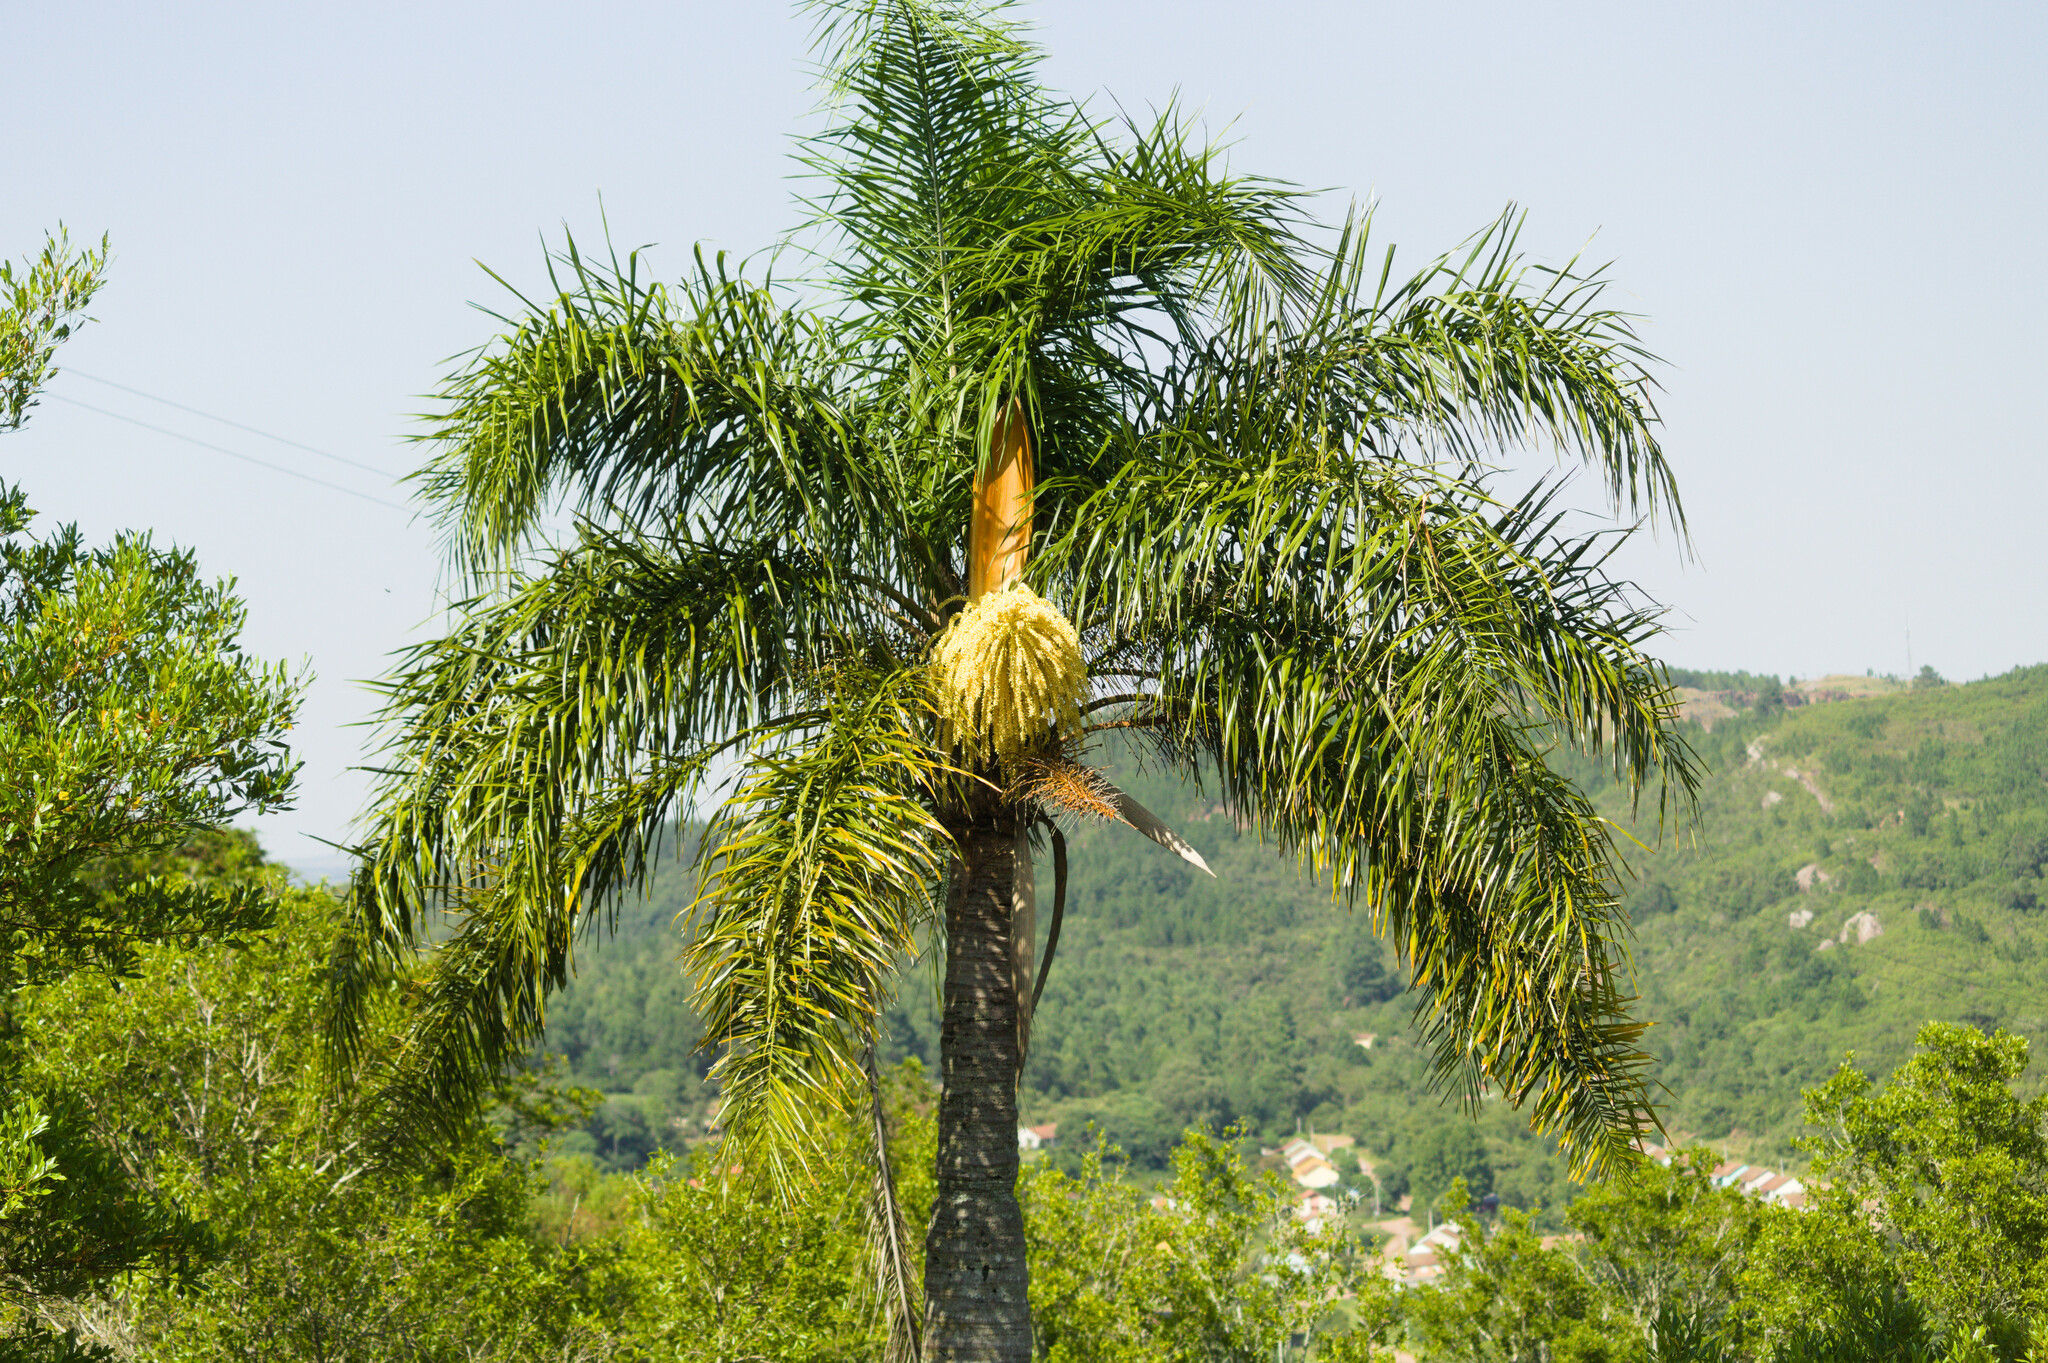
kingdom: Plantae
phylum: Tracheophyta
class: Liliopsida
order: Arecales
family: Arecaceae
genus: Syagrus
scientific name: Syagrus romanzoffiana
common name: Queen palm
